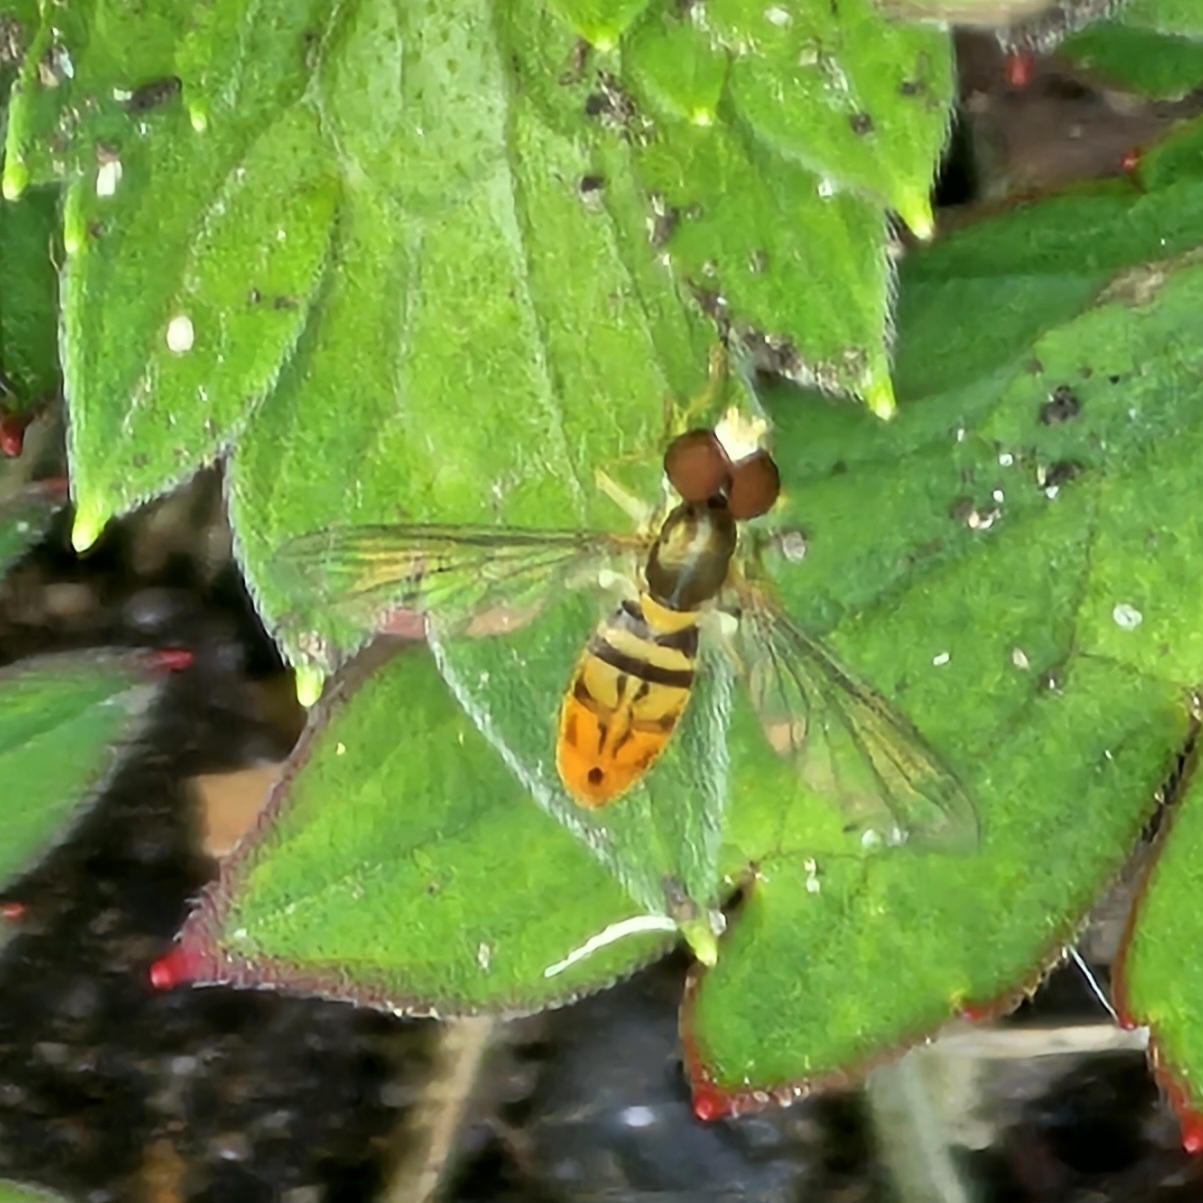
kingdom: Animalia
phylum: Arthropoda
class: Insecta
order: Diptera
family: Syrphidae
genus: Toxomerus
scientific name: Toxomerus marginatus
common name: Syrphid fly
